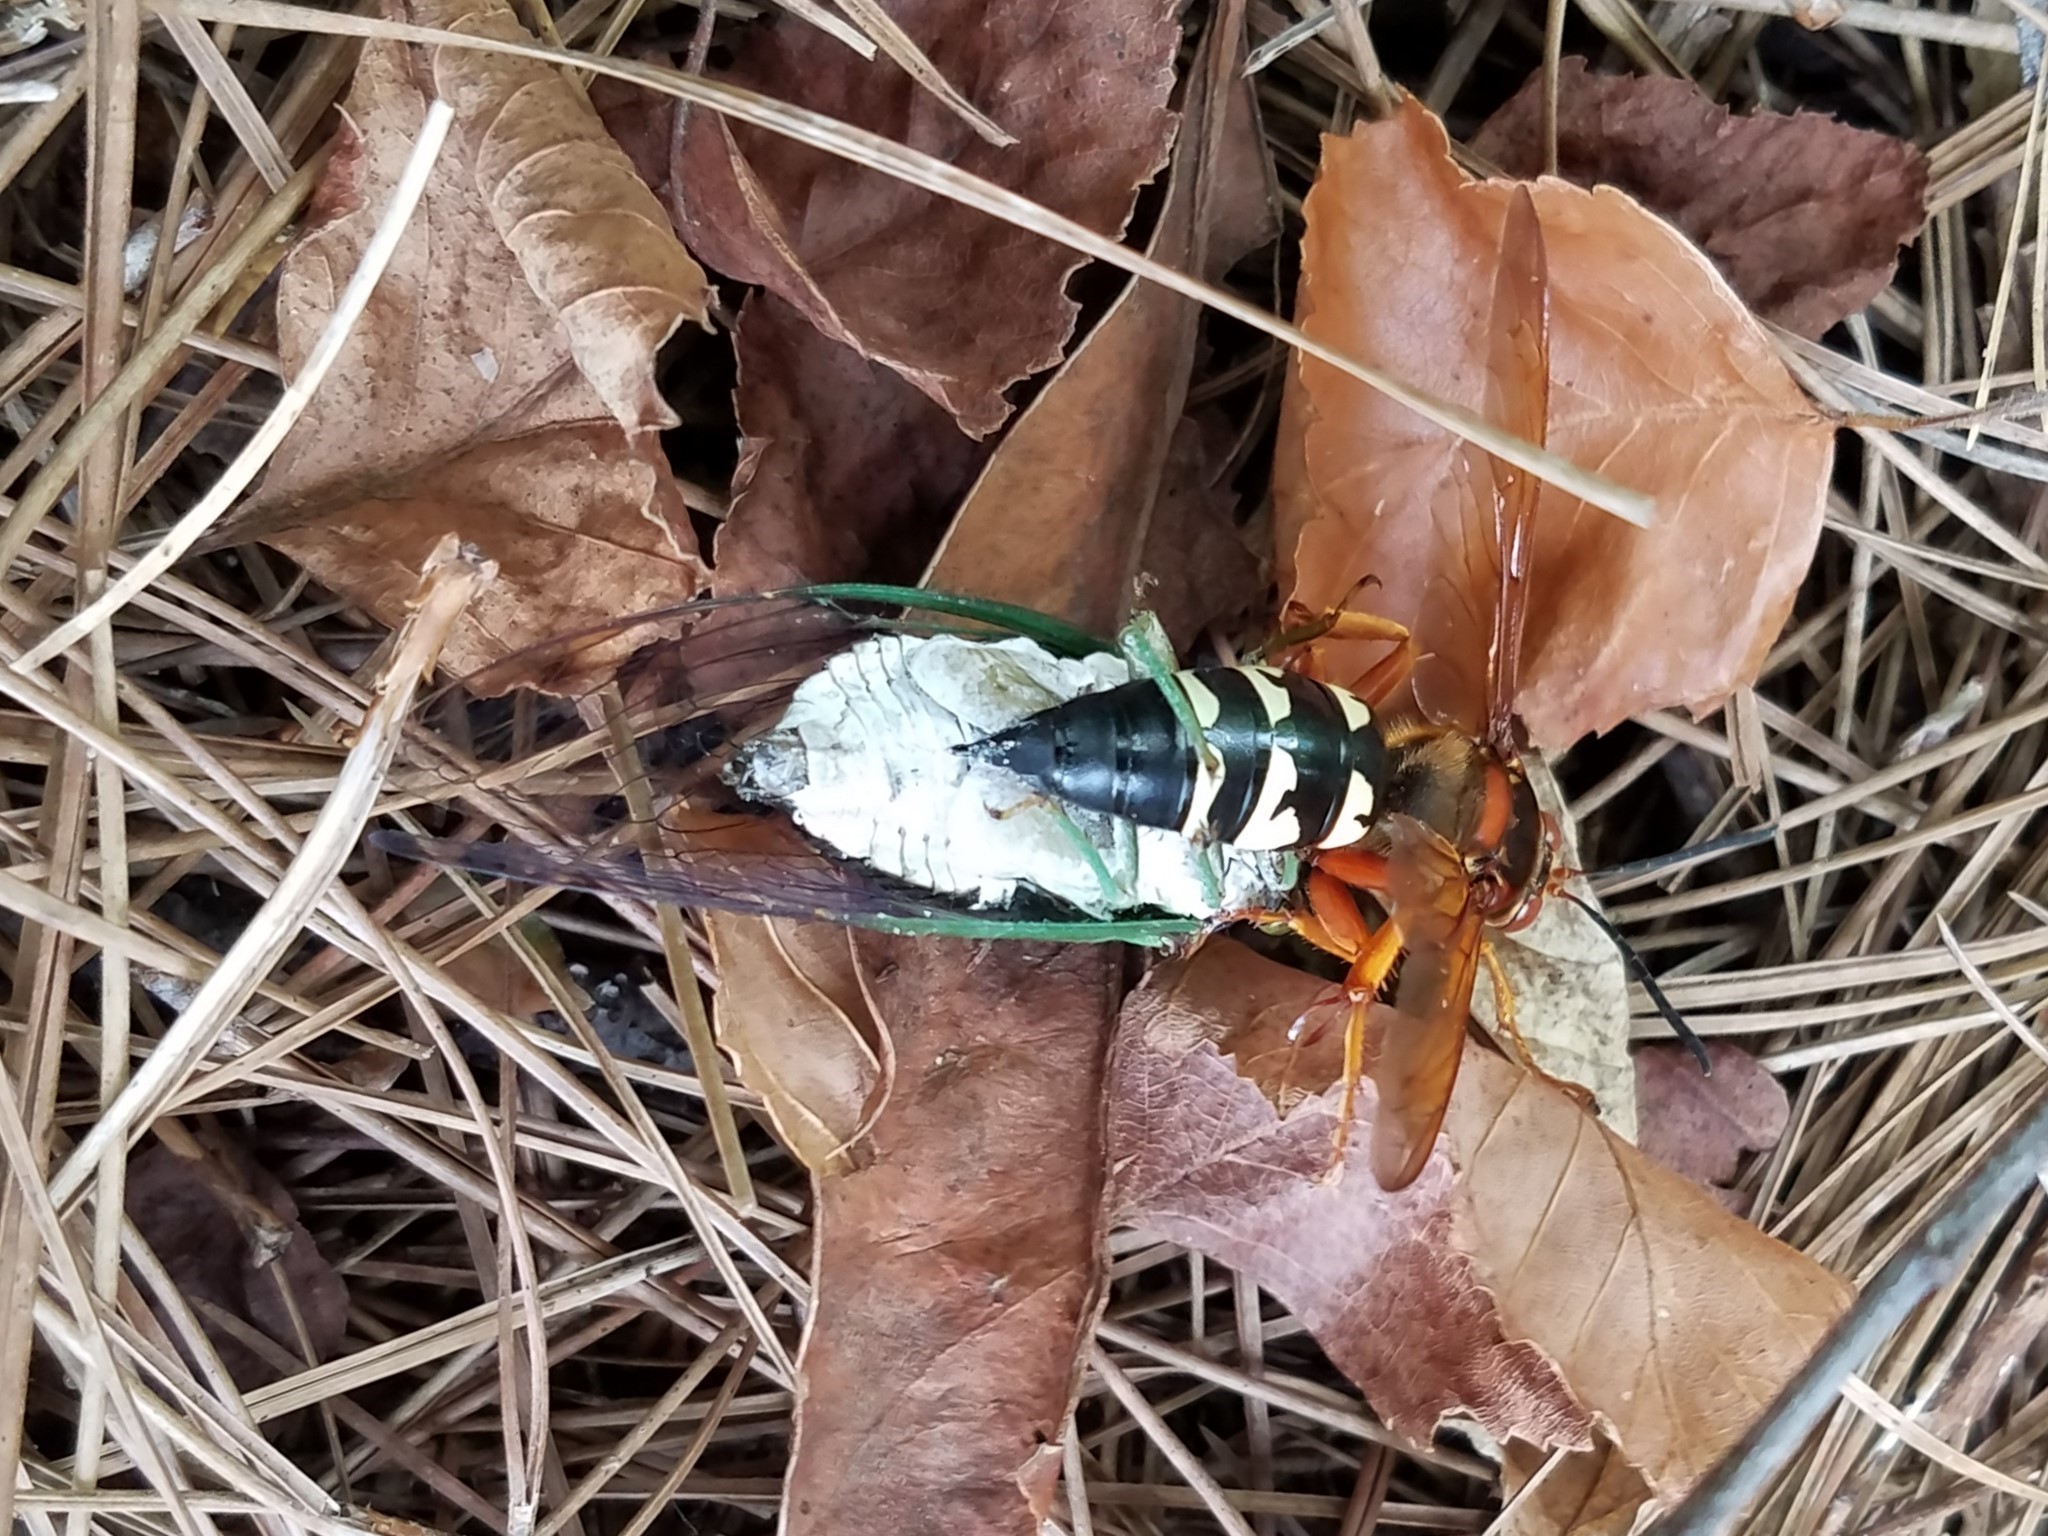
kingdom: Animalia
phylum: Arthropoda
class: Insecta
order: Hymenoptera
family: Crabronidae
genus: Sphecius
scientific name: Sphecius speciosus
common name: Cicada killer
